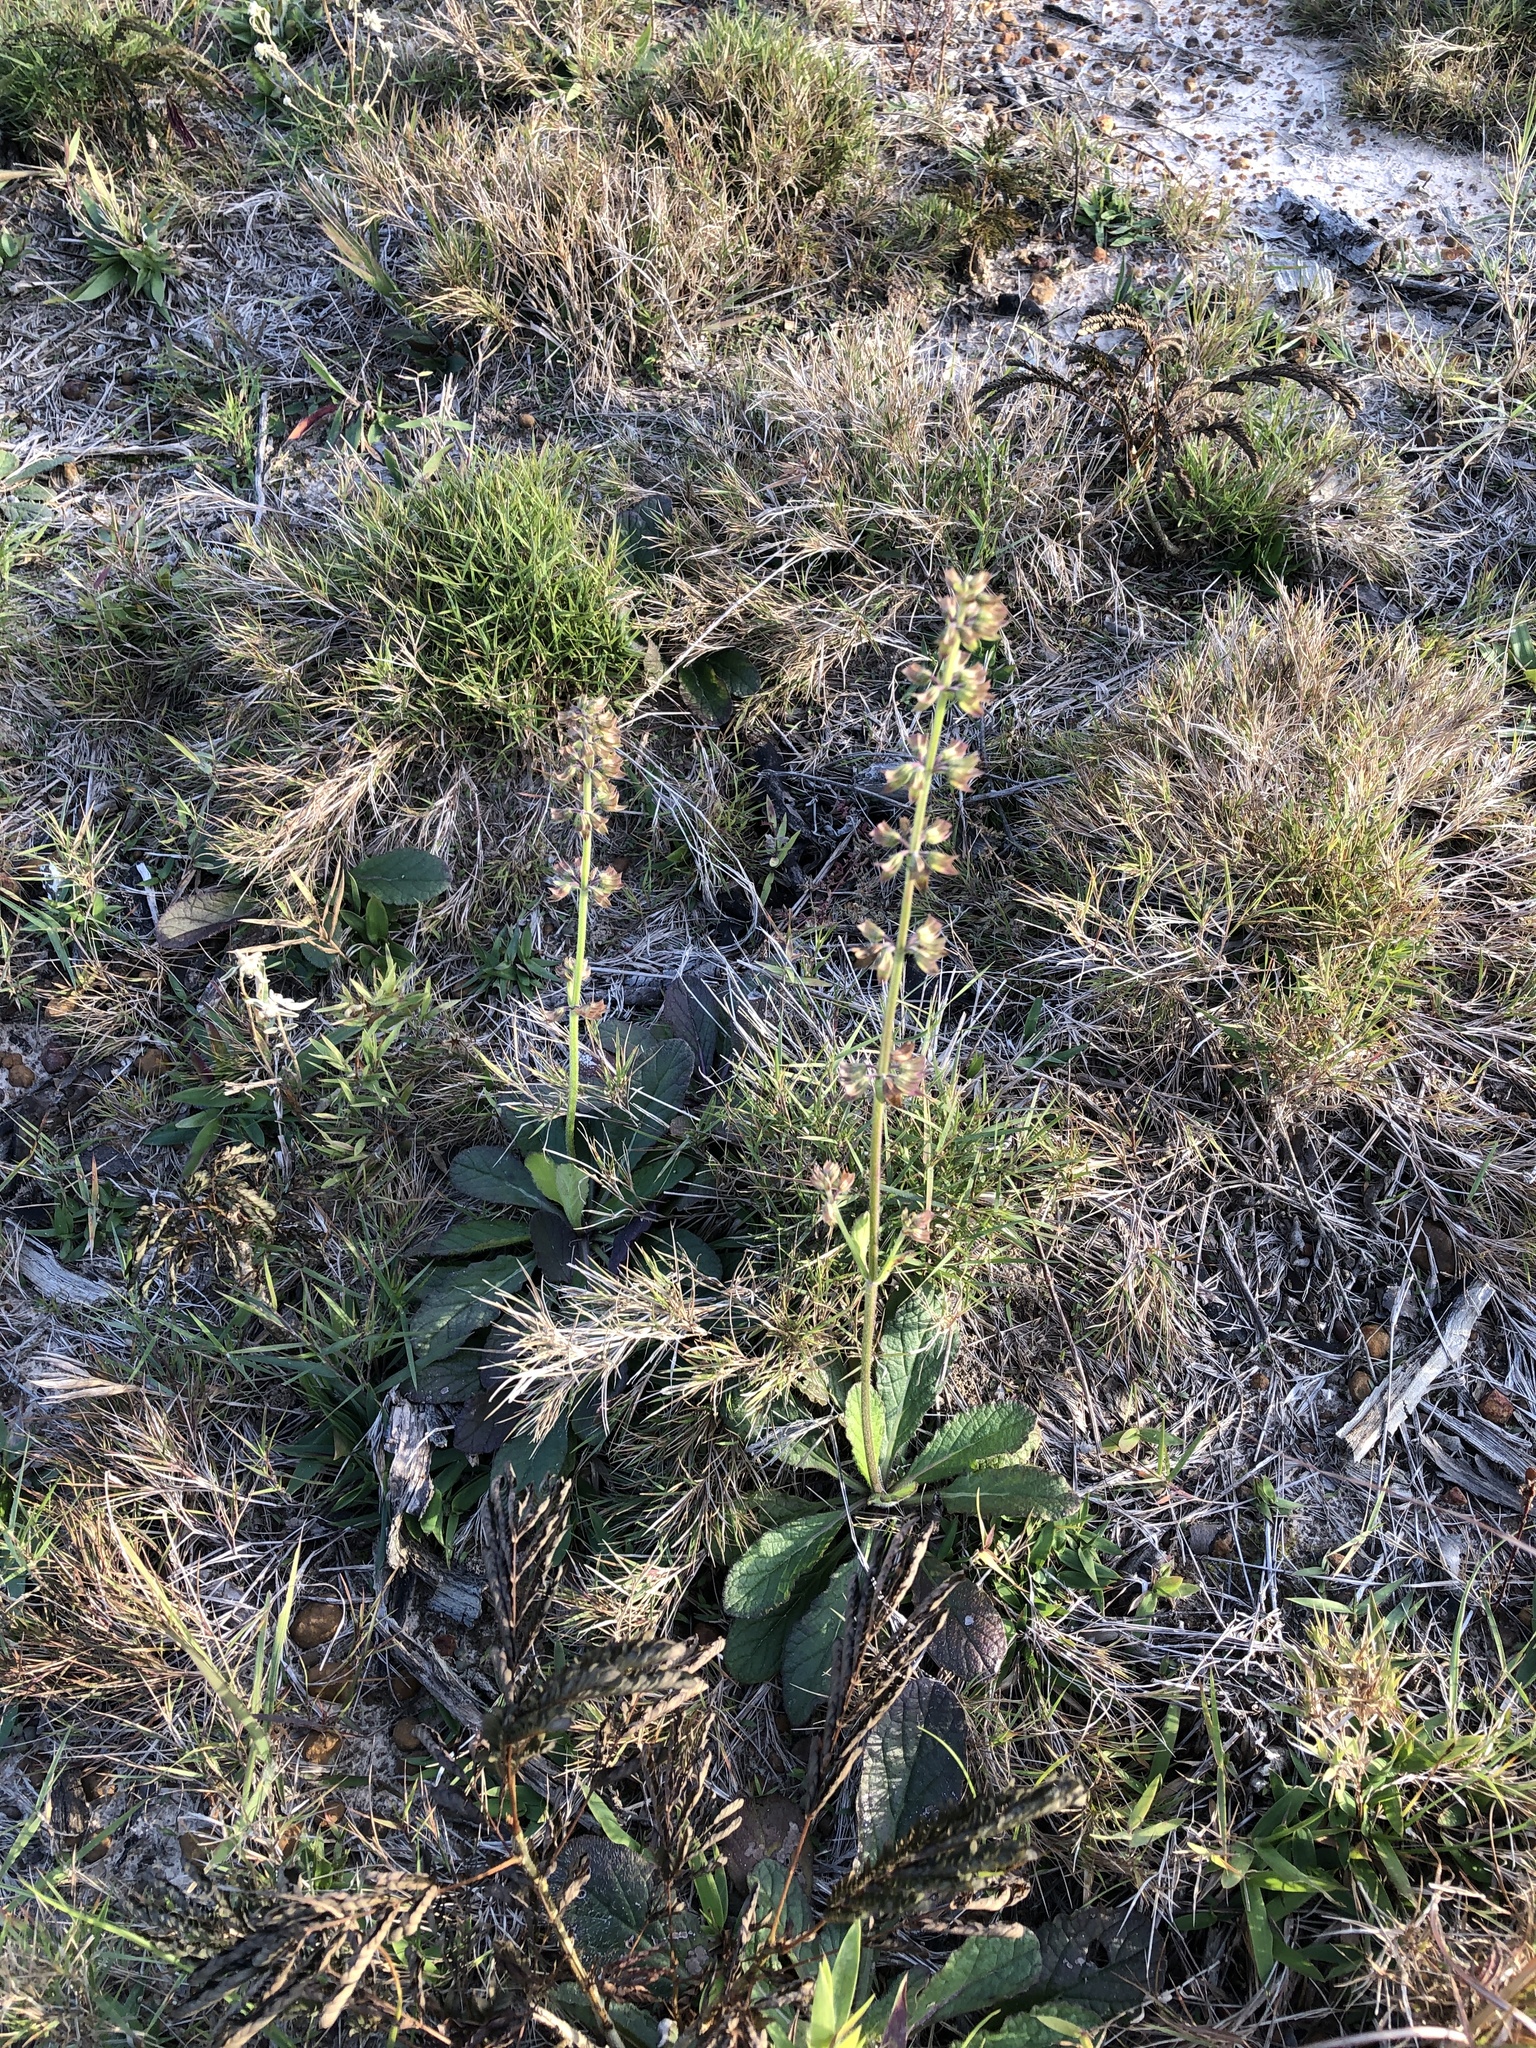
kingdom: Plantae
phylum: Tracheophyta
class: Magnoliopsida
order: Lamiales
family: Lamiaceae
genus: Salvia
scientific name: Salvia lyrata
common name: Cancerweed
